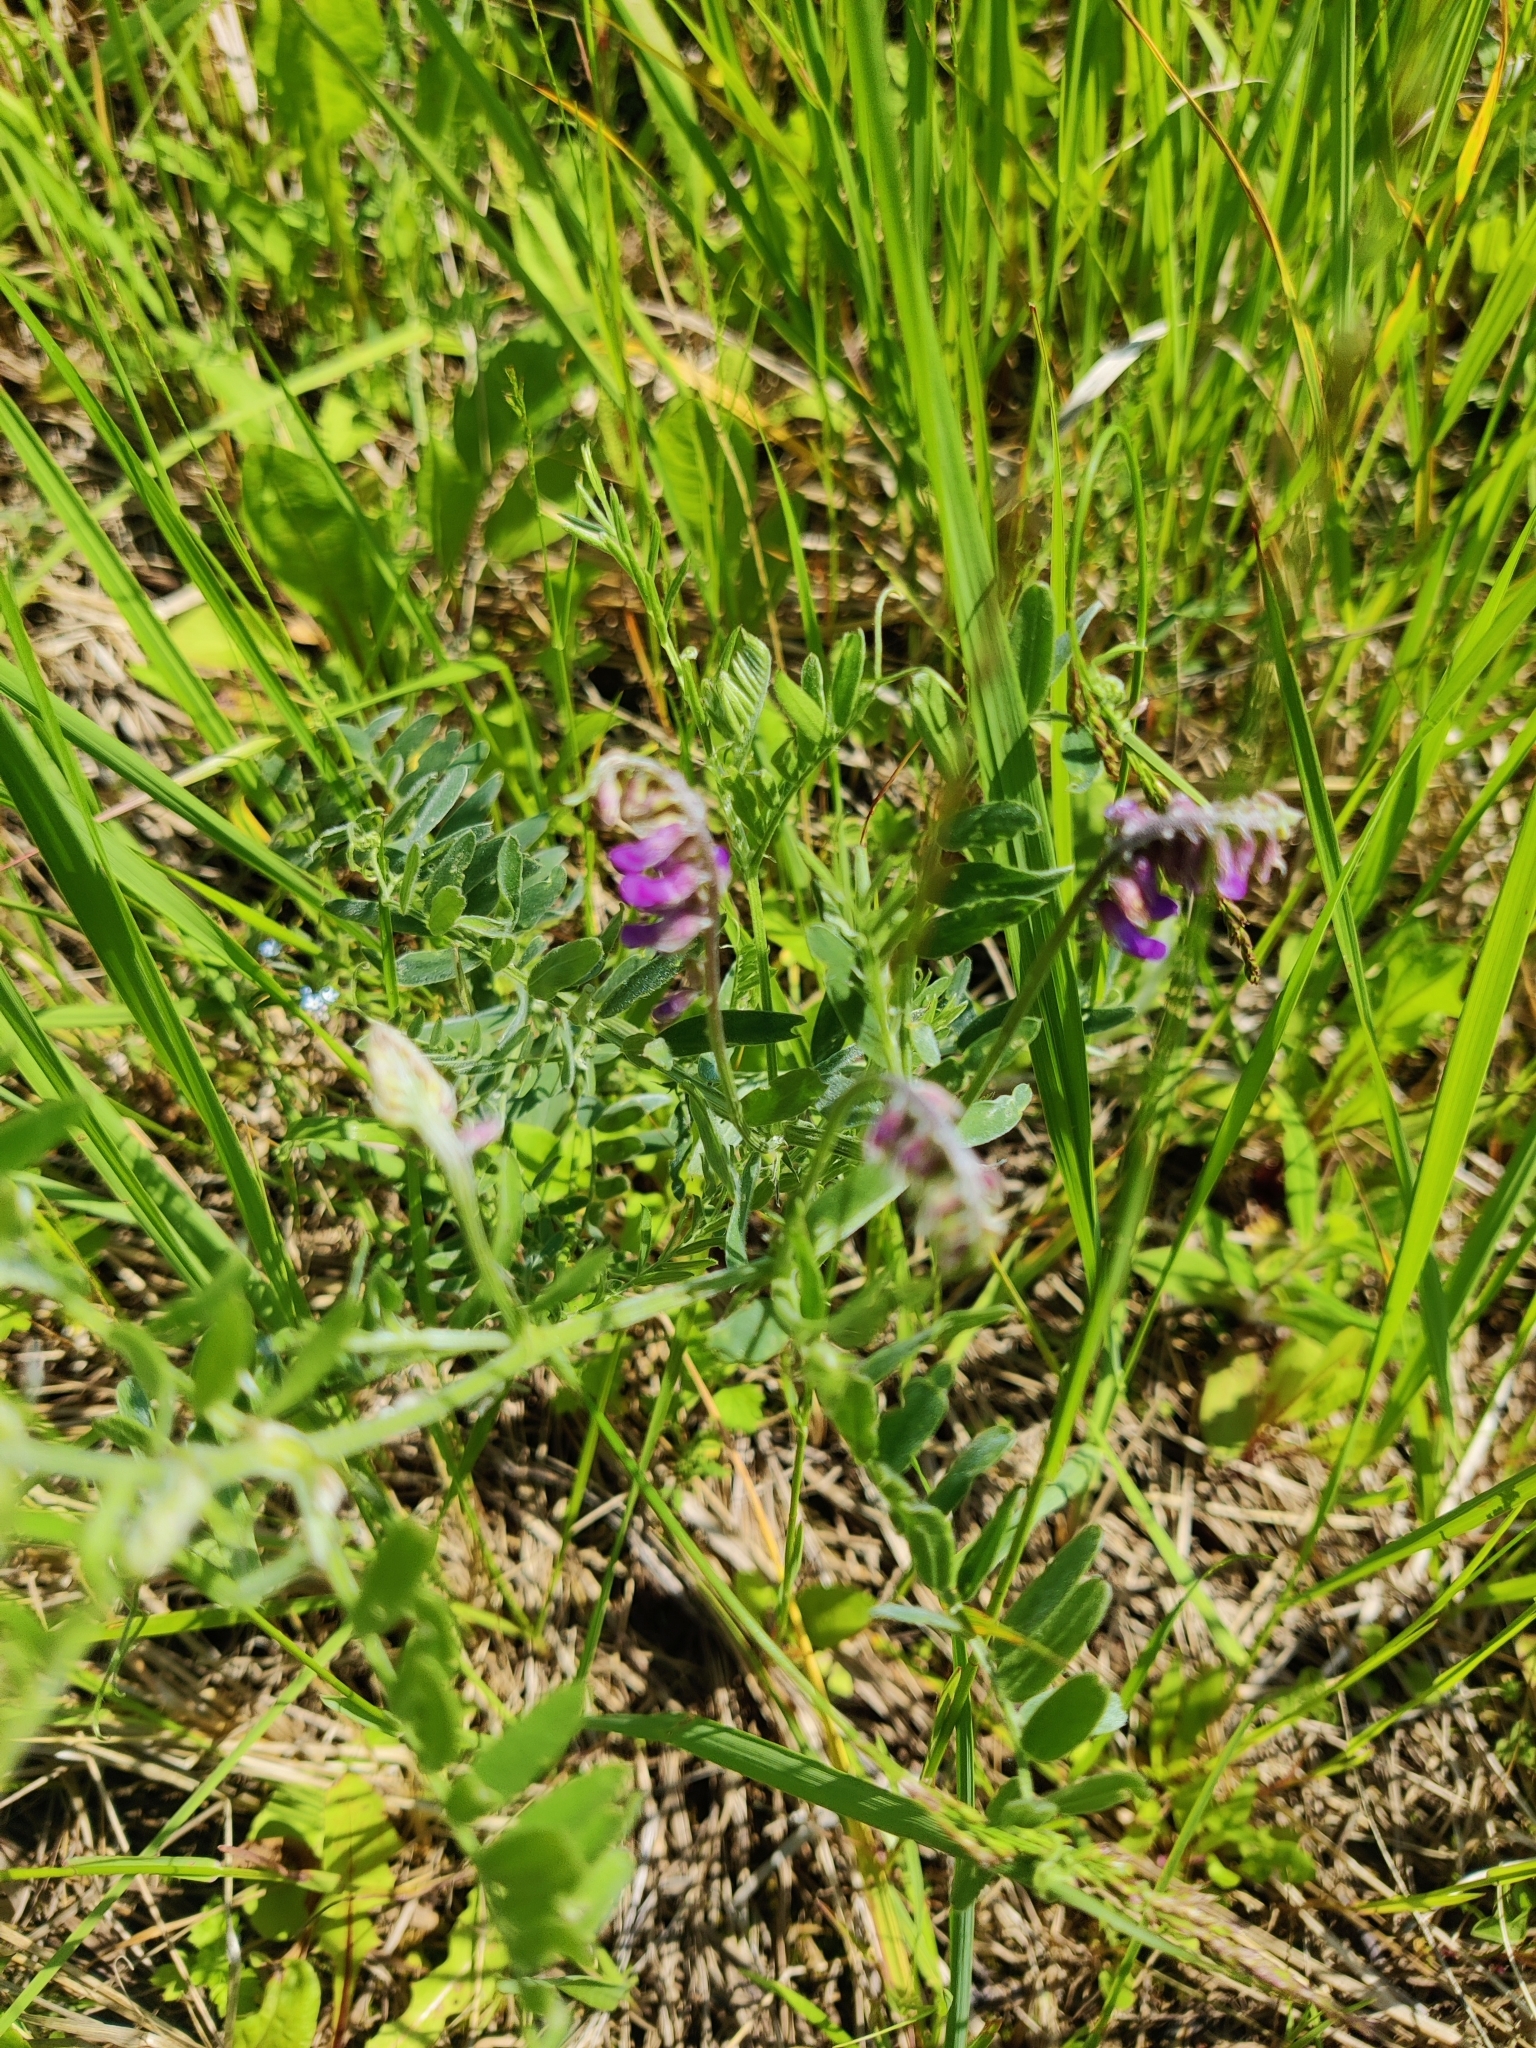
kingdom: Plantae
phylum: Tracheophyta
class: Magnoliopsida
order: Fabales
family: Fabaceae
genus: Vicia
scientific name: Vicia villosa
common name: Fodder vetch
